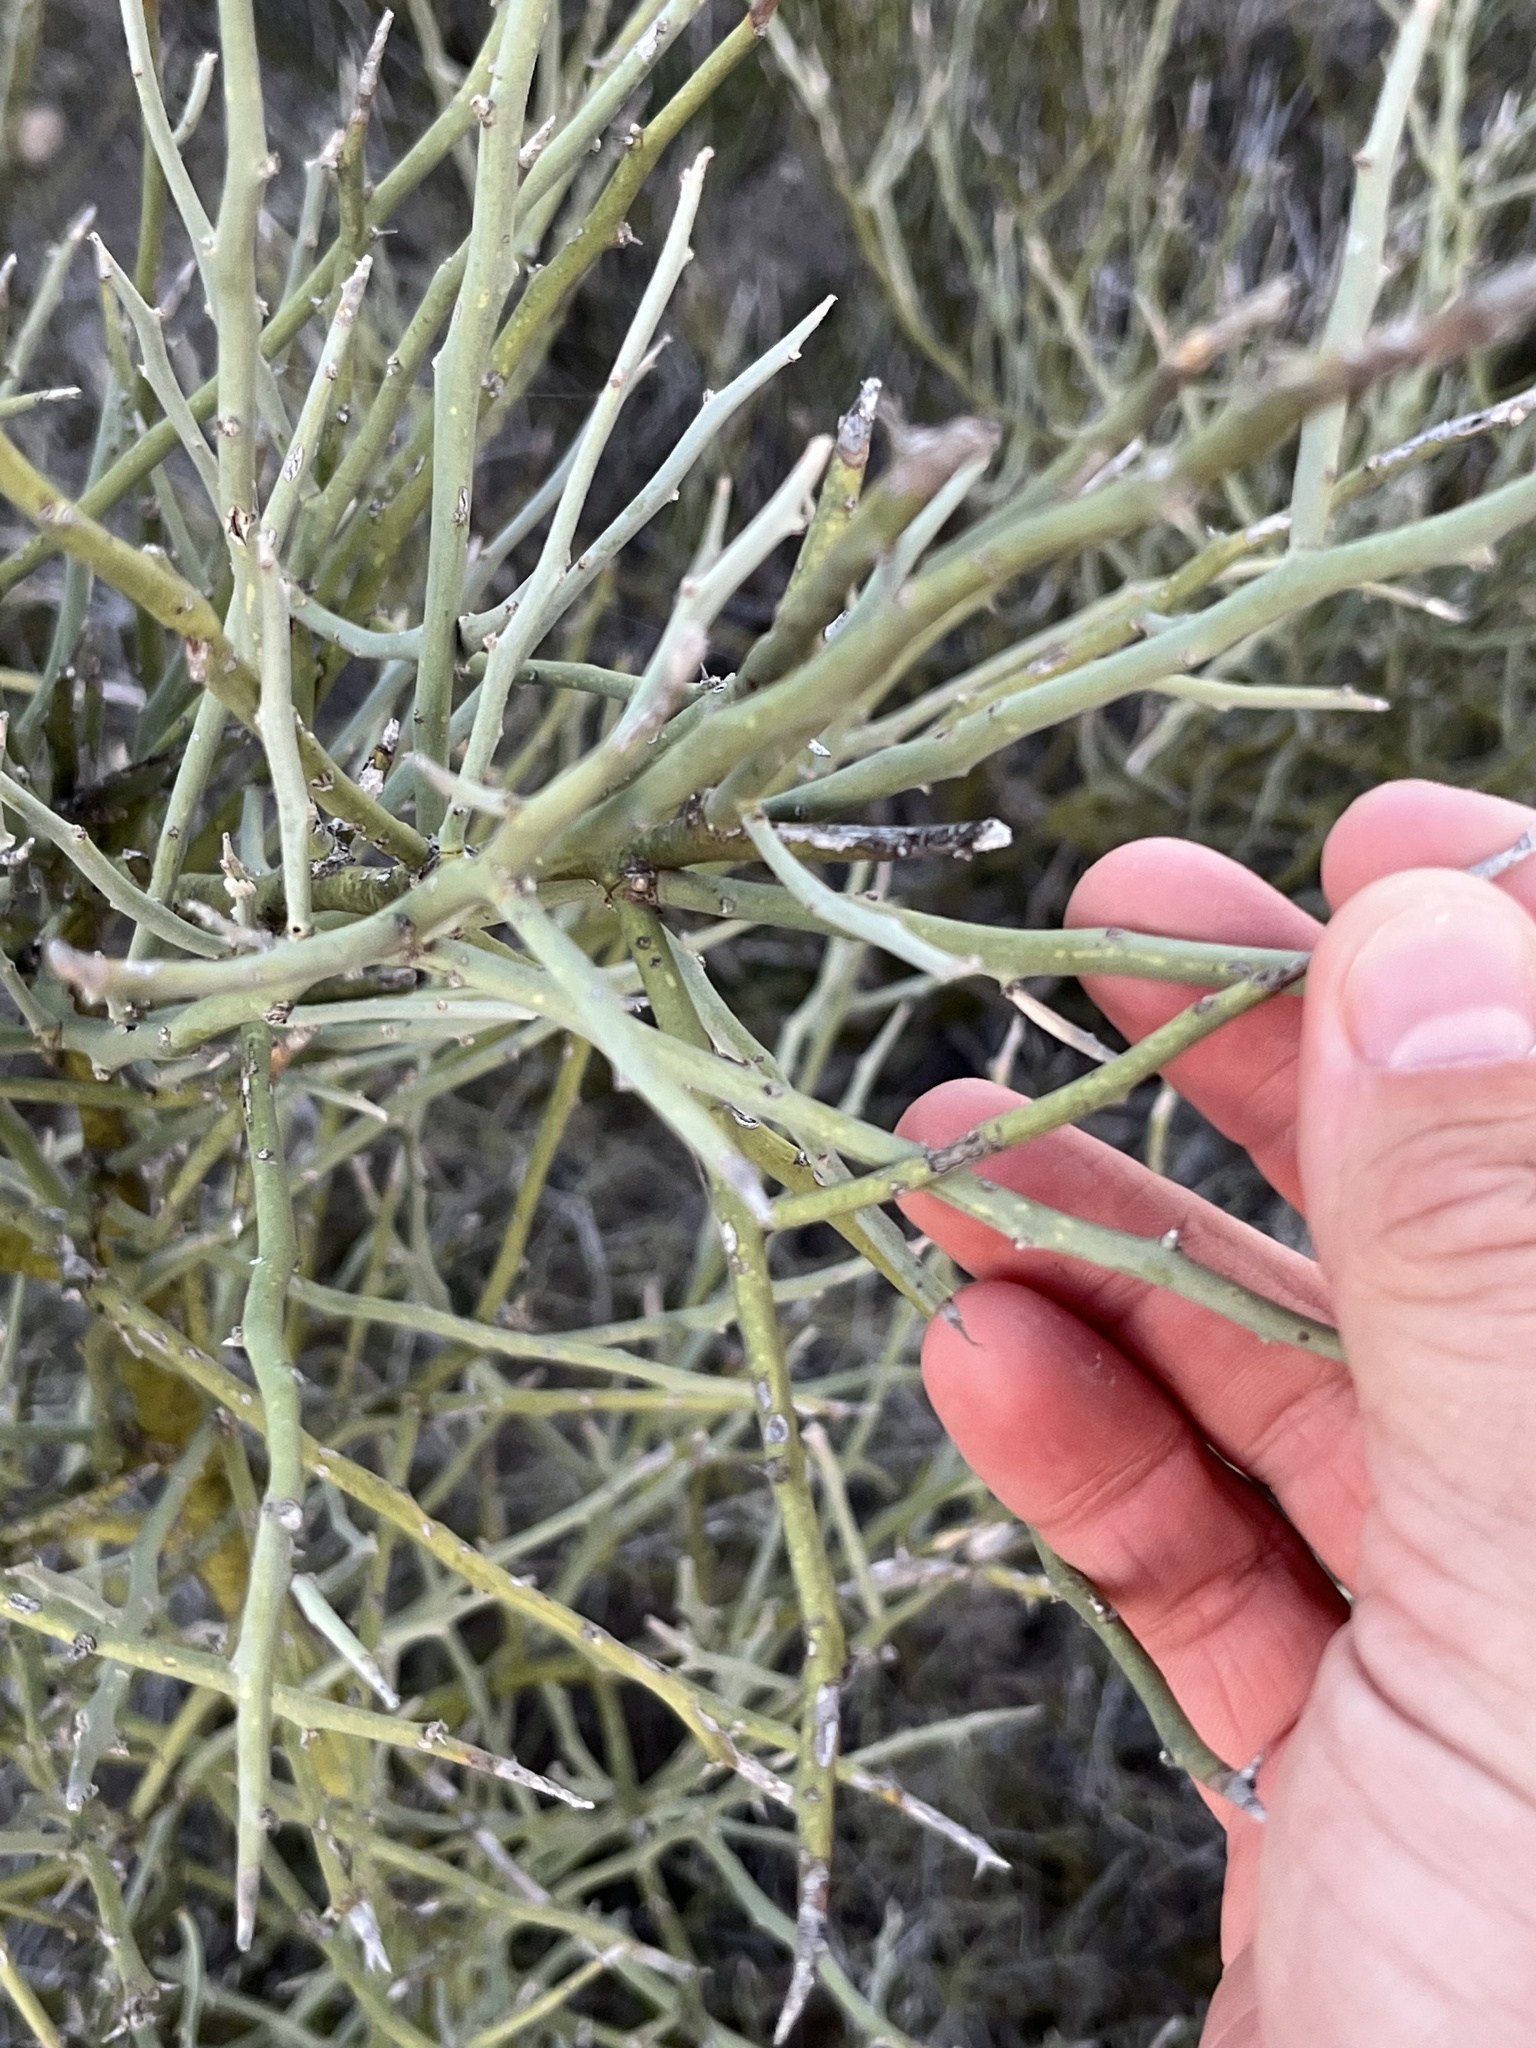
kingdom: Plantae
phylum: Tracheophyta
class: Magnoliopsida
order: Fabales
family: Fabaceae
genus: Parkinsonia
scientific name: Parkinsonia texana
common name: Texas paloverde
